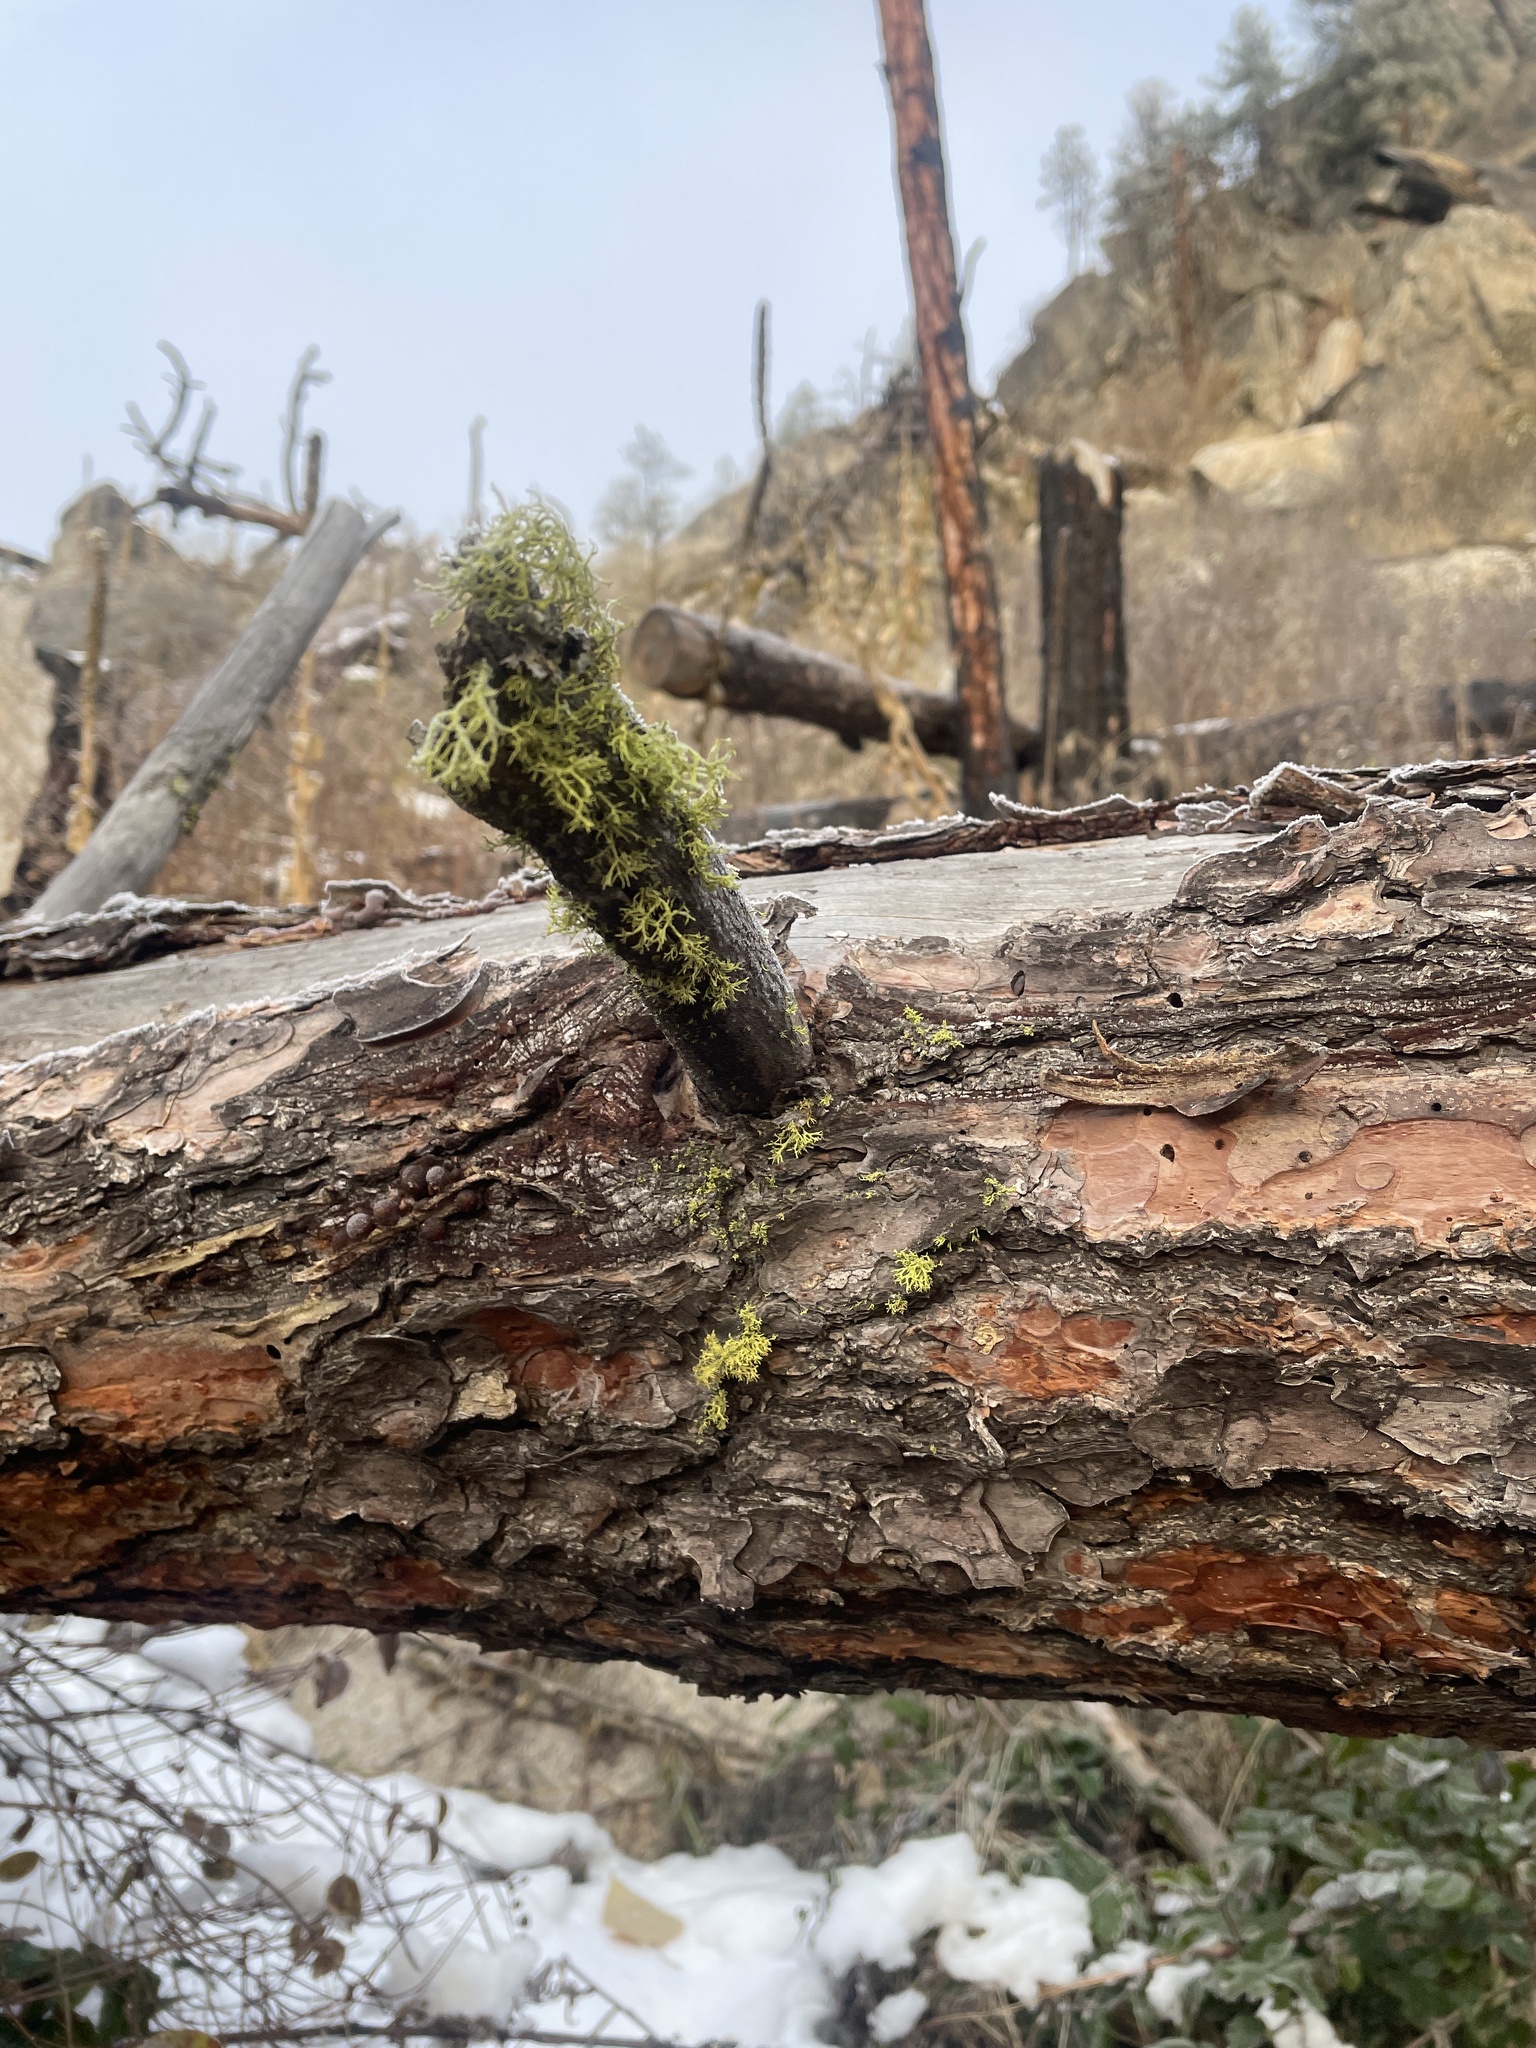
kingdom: Fungi
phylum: Ascomycota
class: Lecanoromycetes
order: Lecanorales
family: Parmeliaceae
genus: Letharia
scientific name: Letharia vulpina
